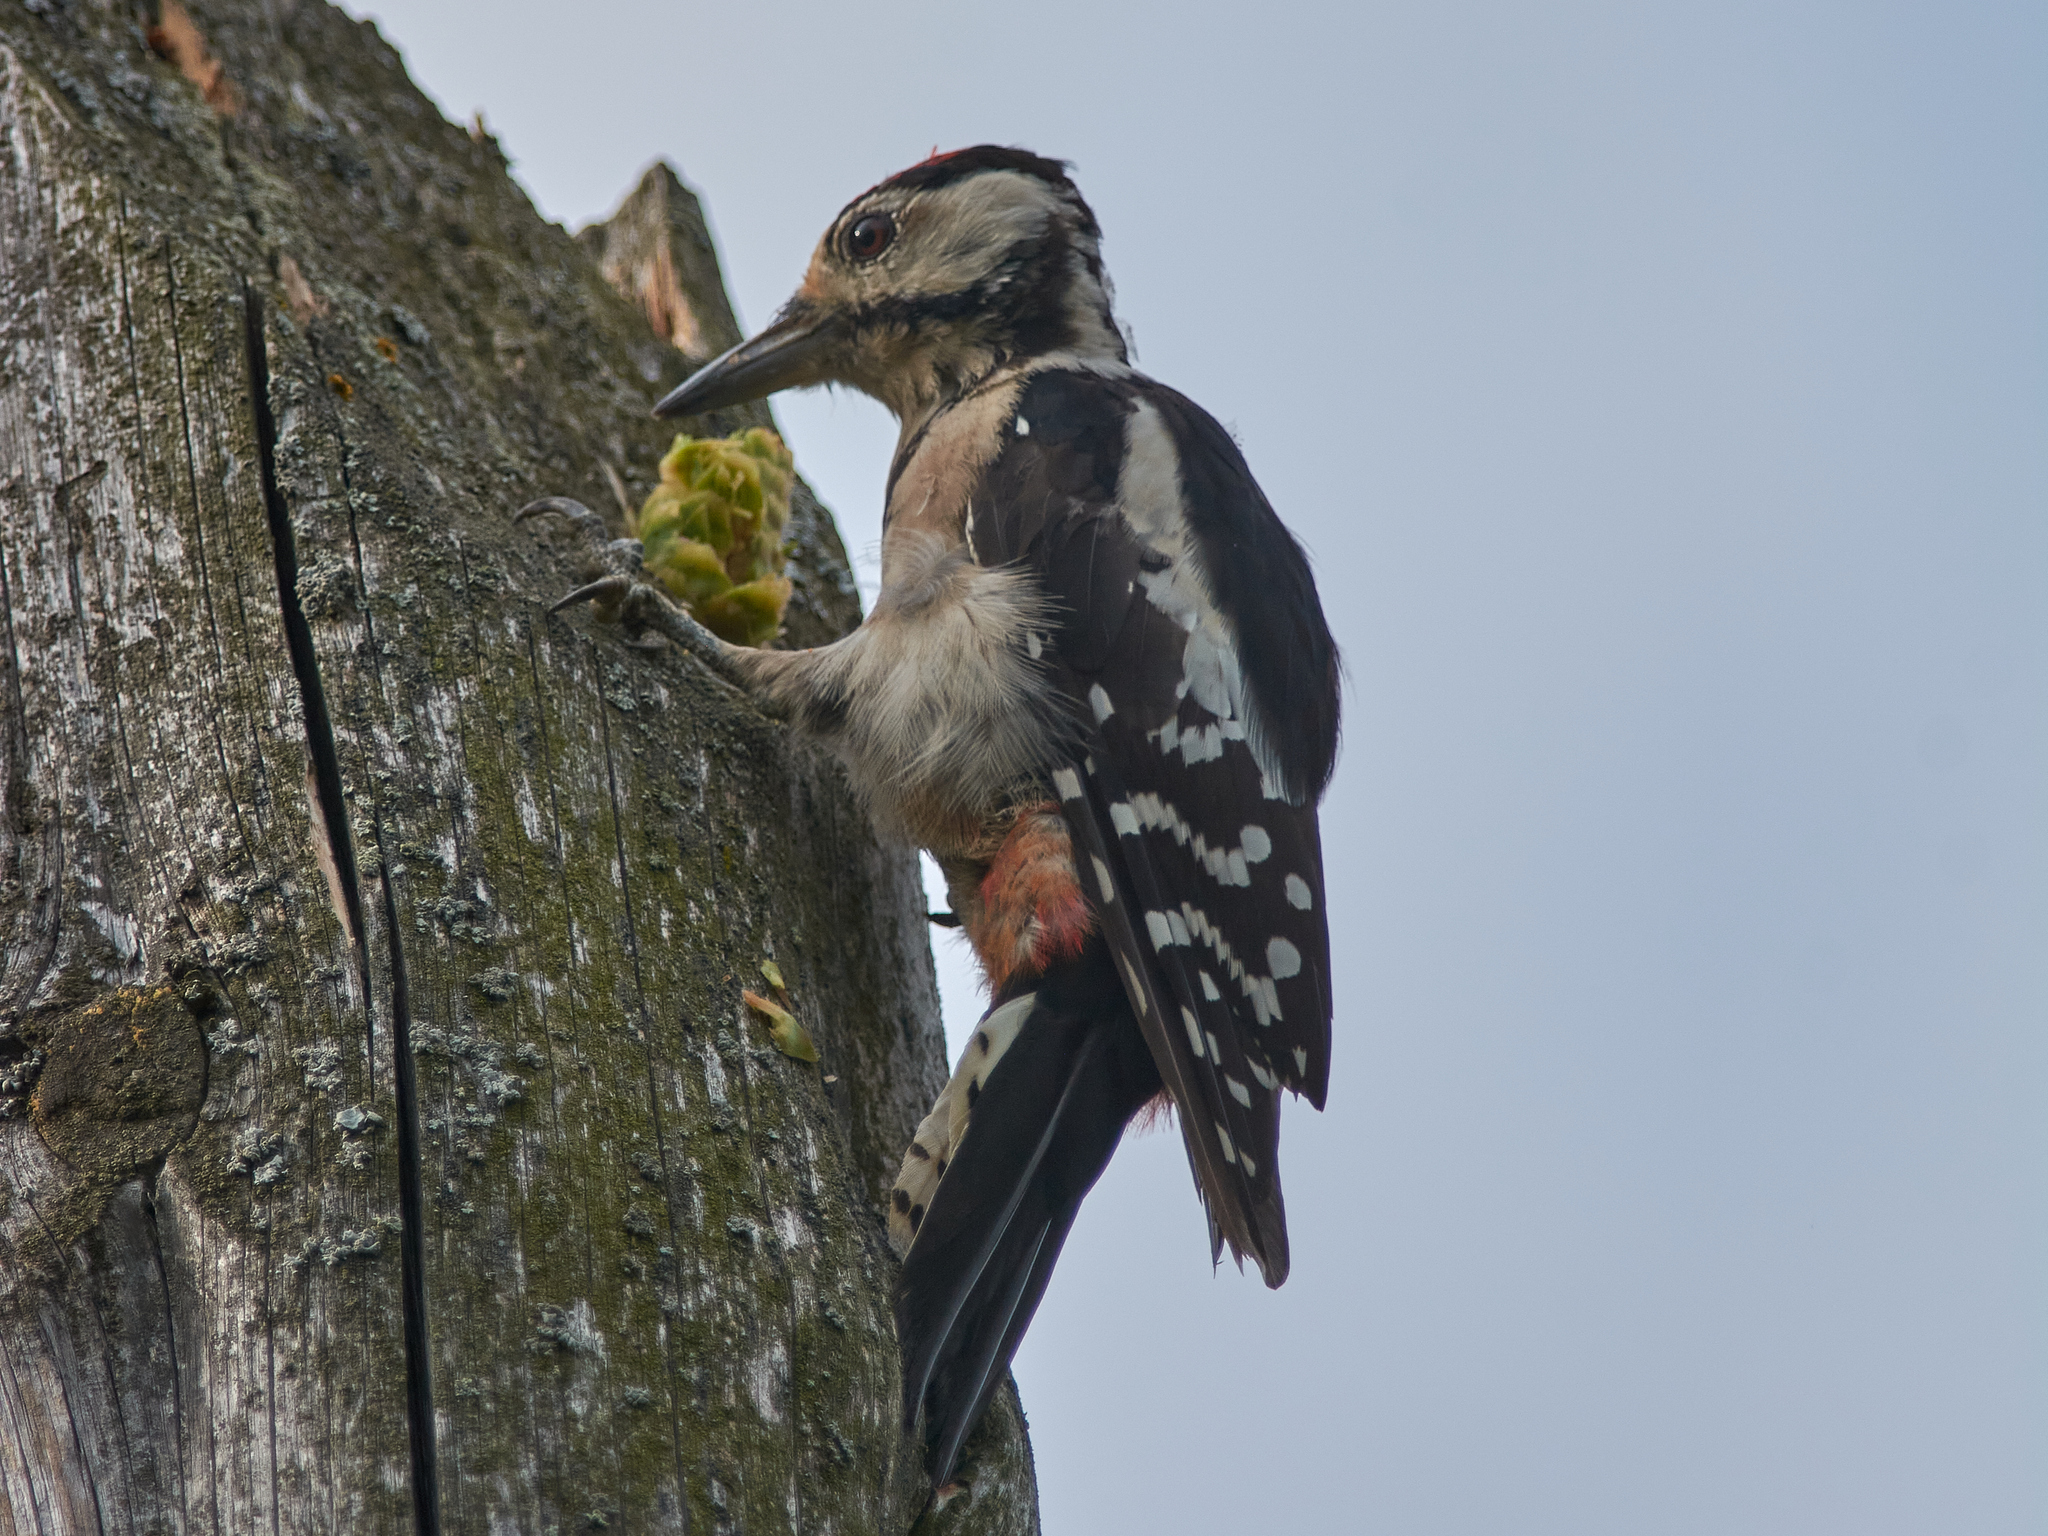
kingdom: Animalia
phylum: Chordata
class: Aves
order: Piciformes
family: Picidae
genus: Dendrocopos
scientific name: Dendrocopos major
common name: Great spotted woodpecker
